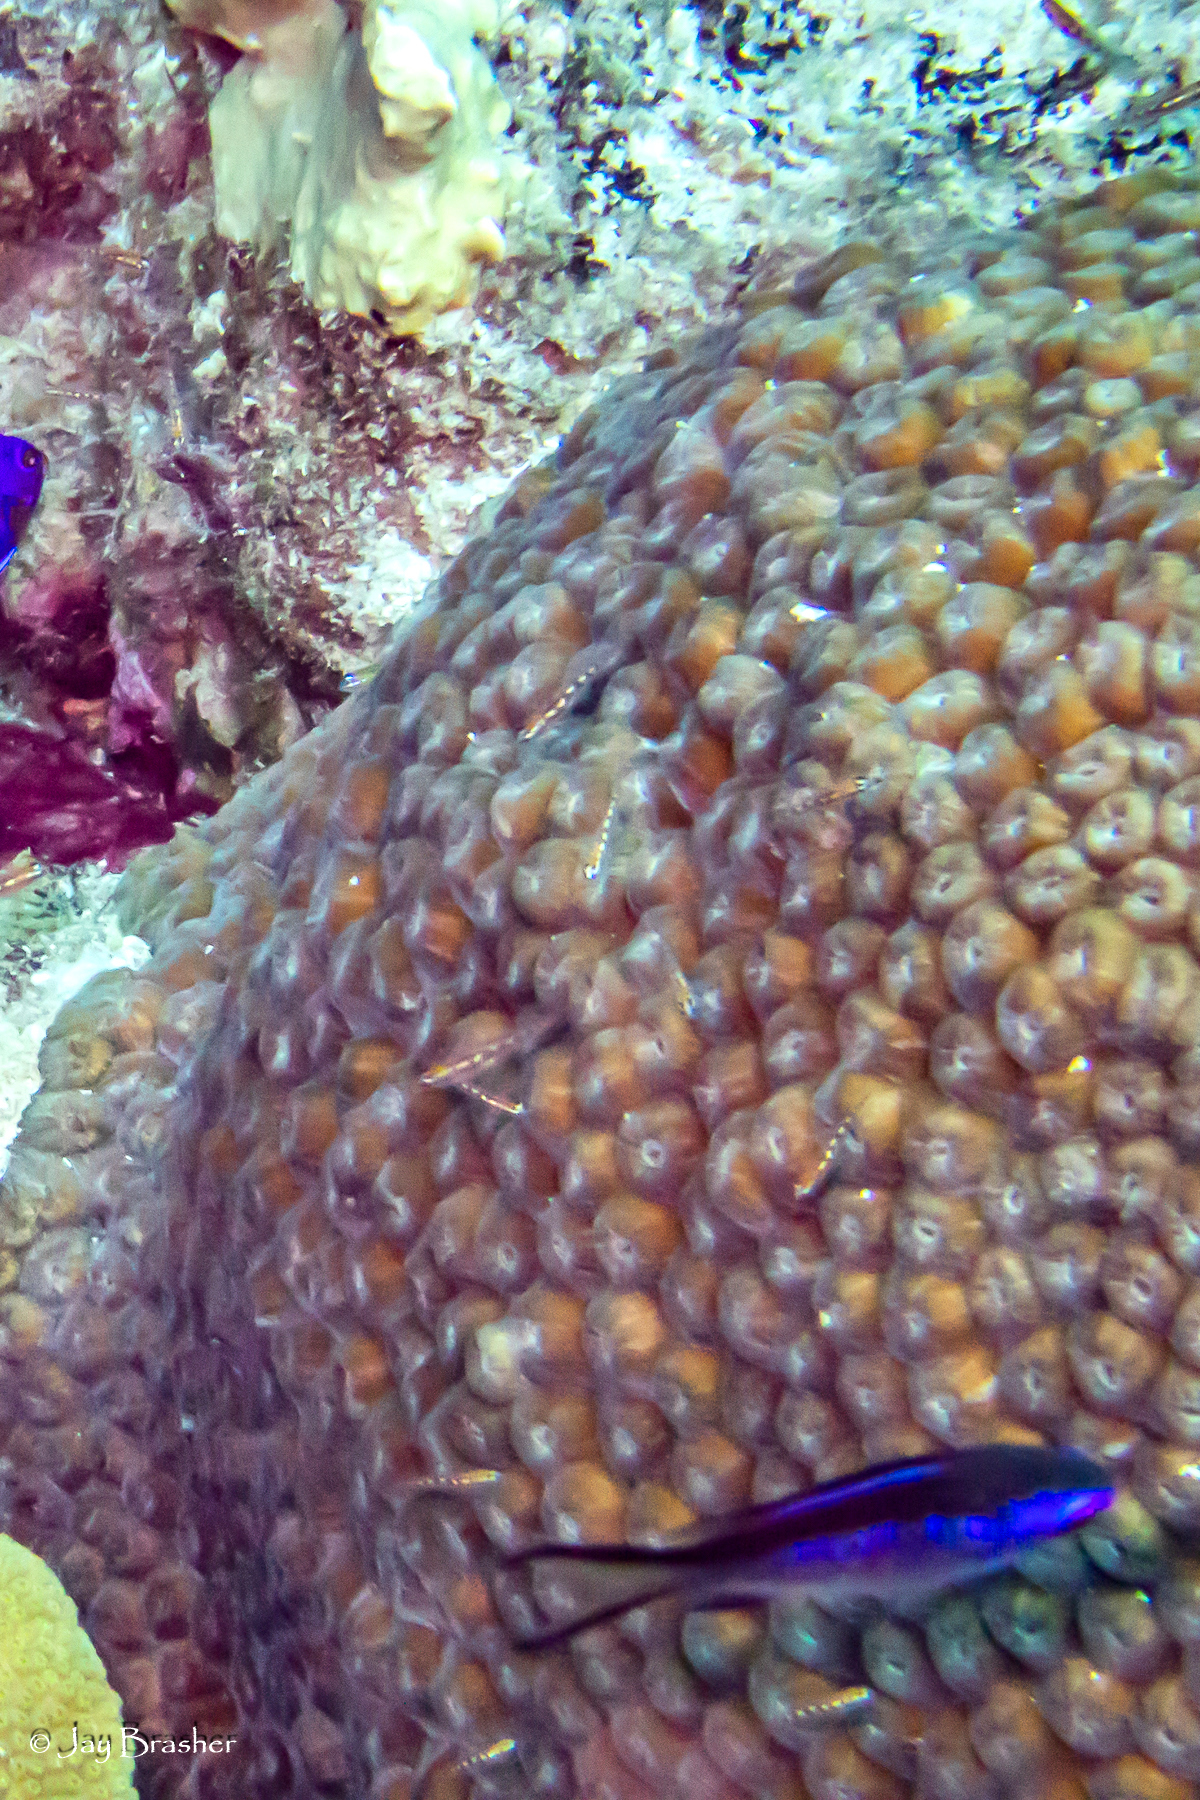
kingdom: Animalia
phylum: Cnidaria
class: Anthozoa
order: Scleractinia
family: Montastraeidae
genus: Montastraea
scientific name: Montastraea cavernosa
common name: Great star coral
